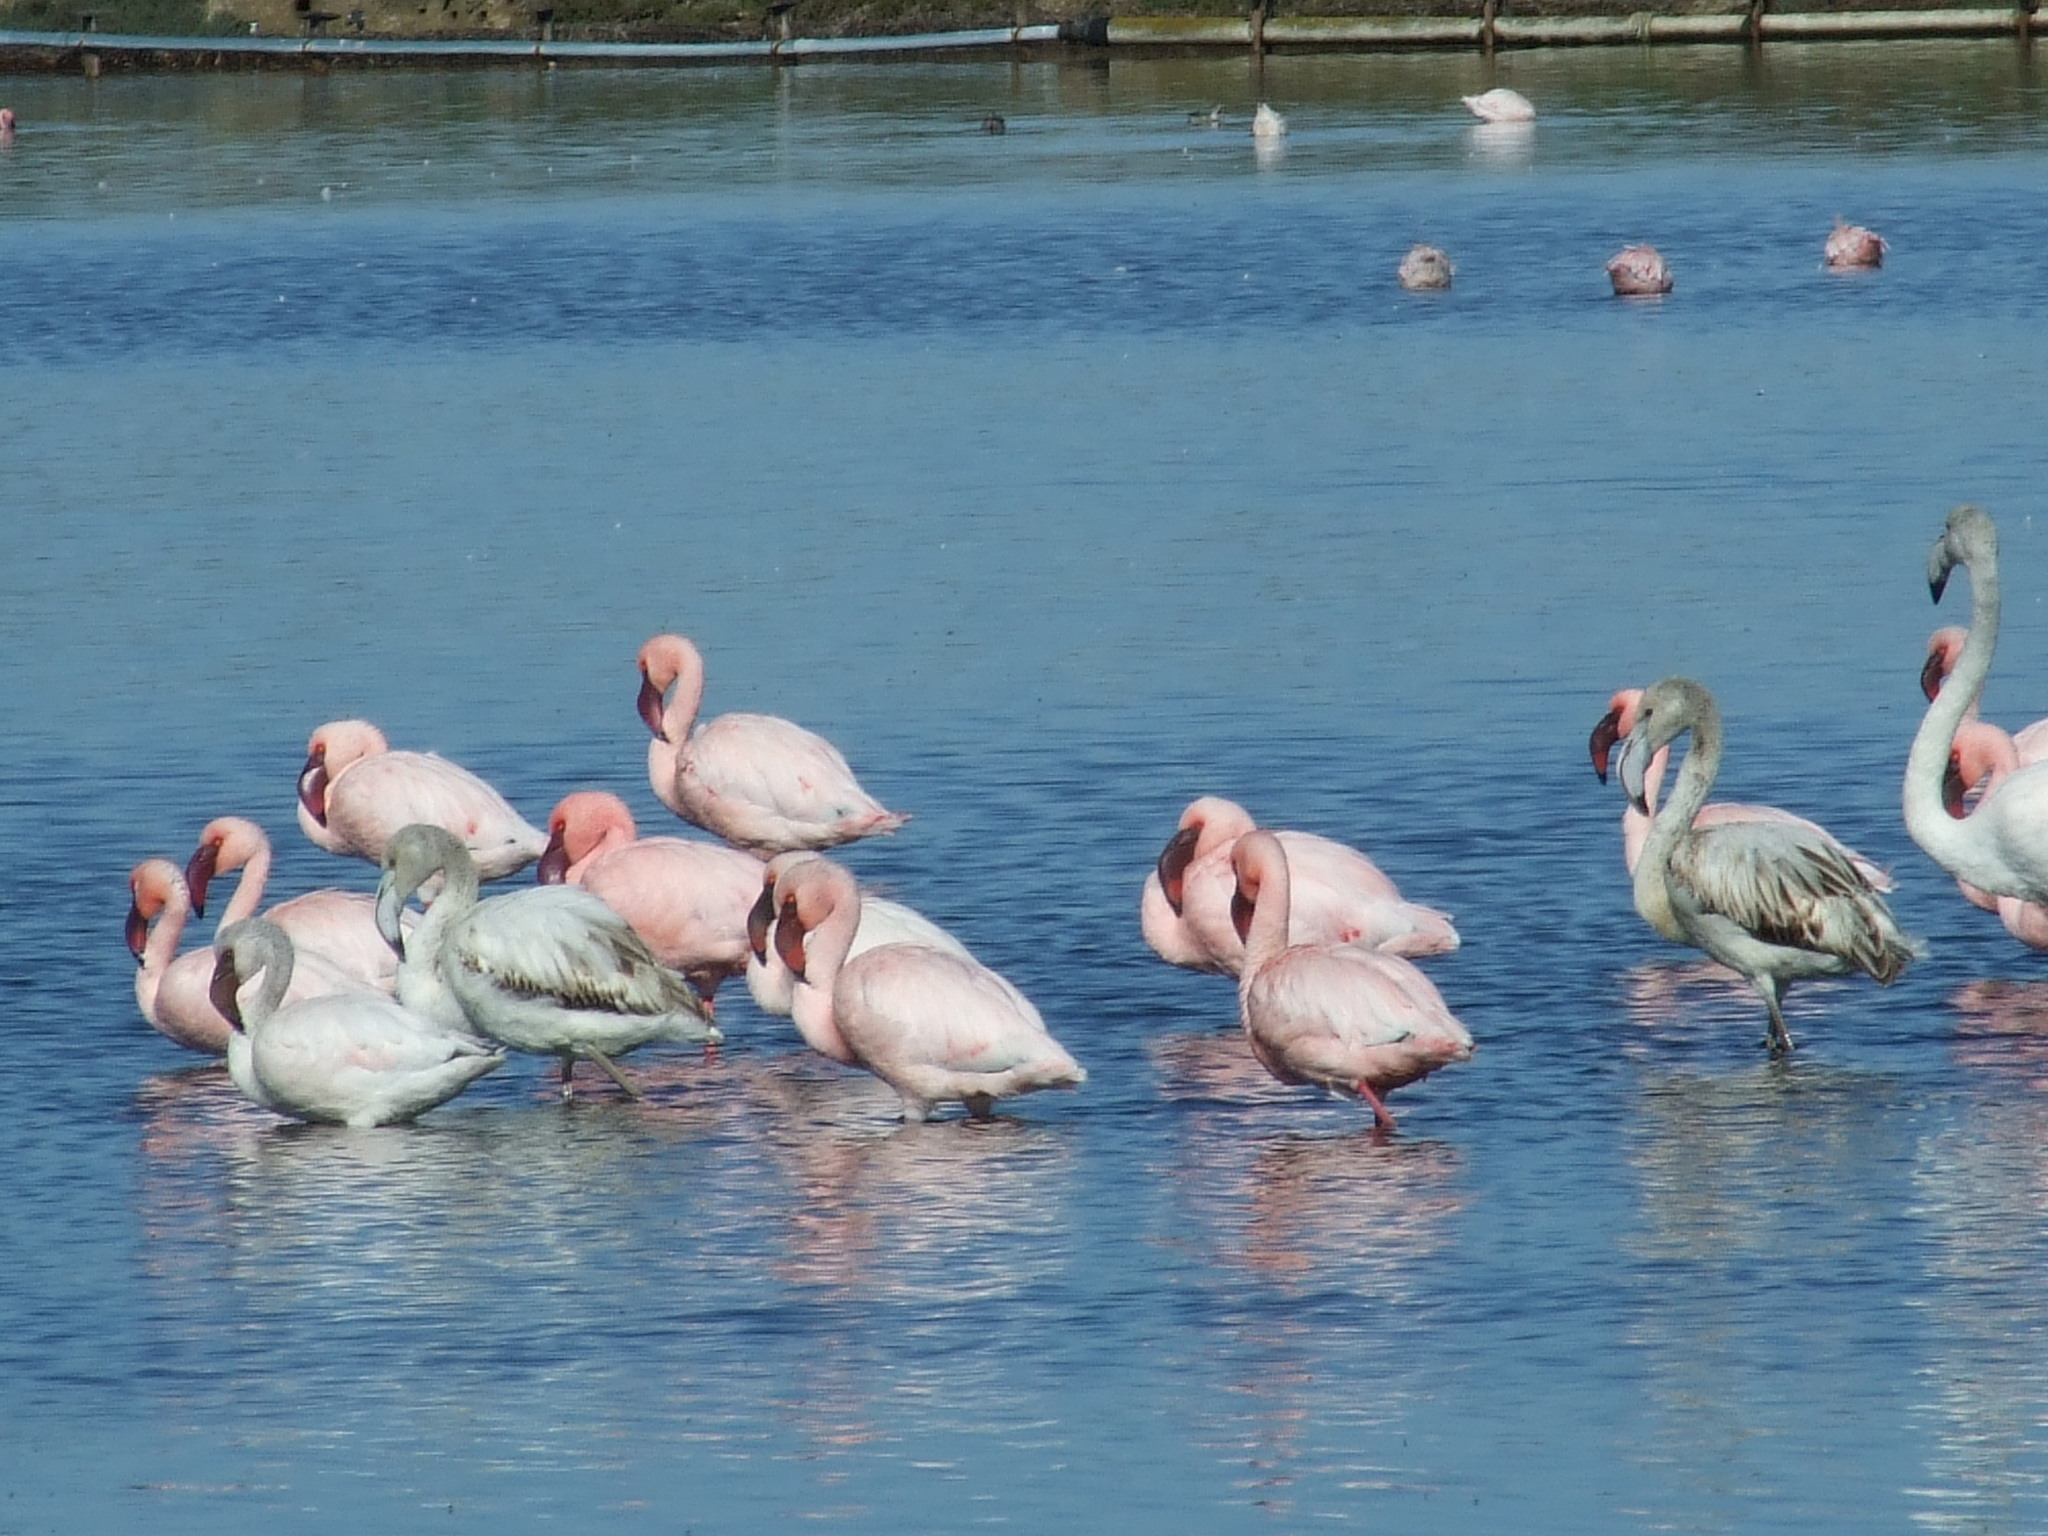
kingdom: Animalia
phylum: Chordata
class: Aves
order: Phoenicopteriformes
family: Phoenicopteridae
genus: Phoeniconaias
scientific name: Phoeniconaias minor
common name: Lesser flamingo
